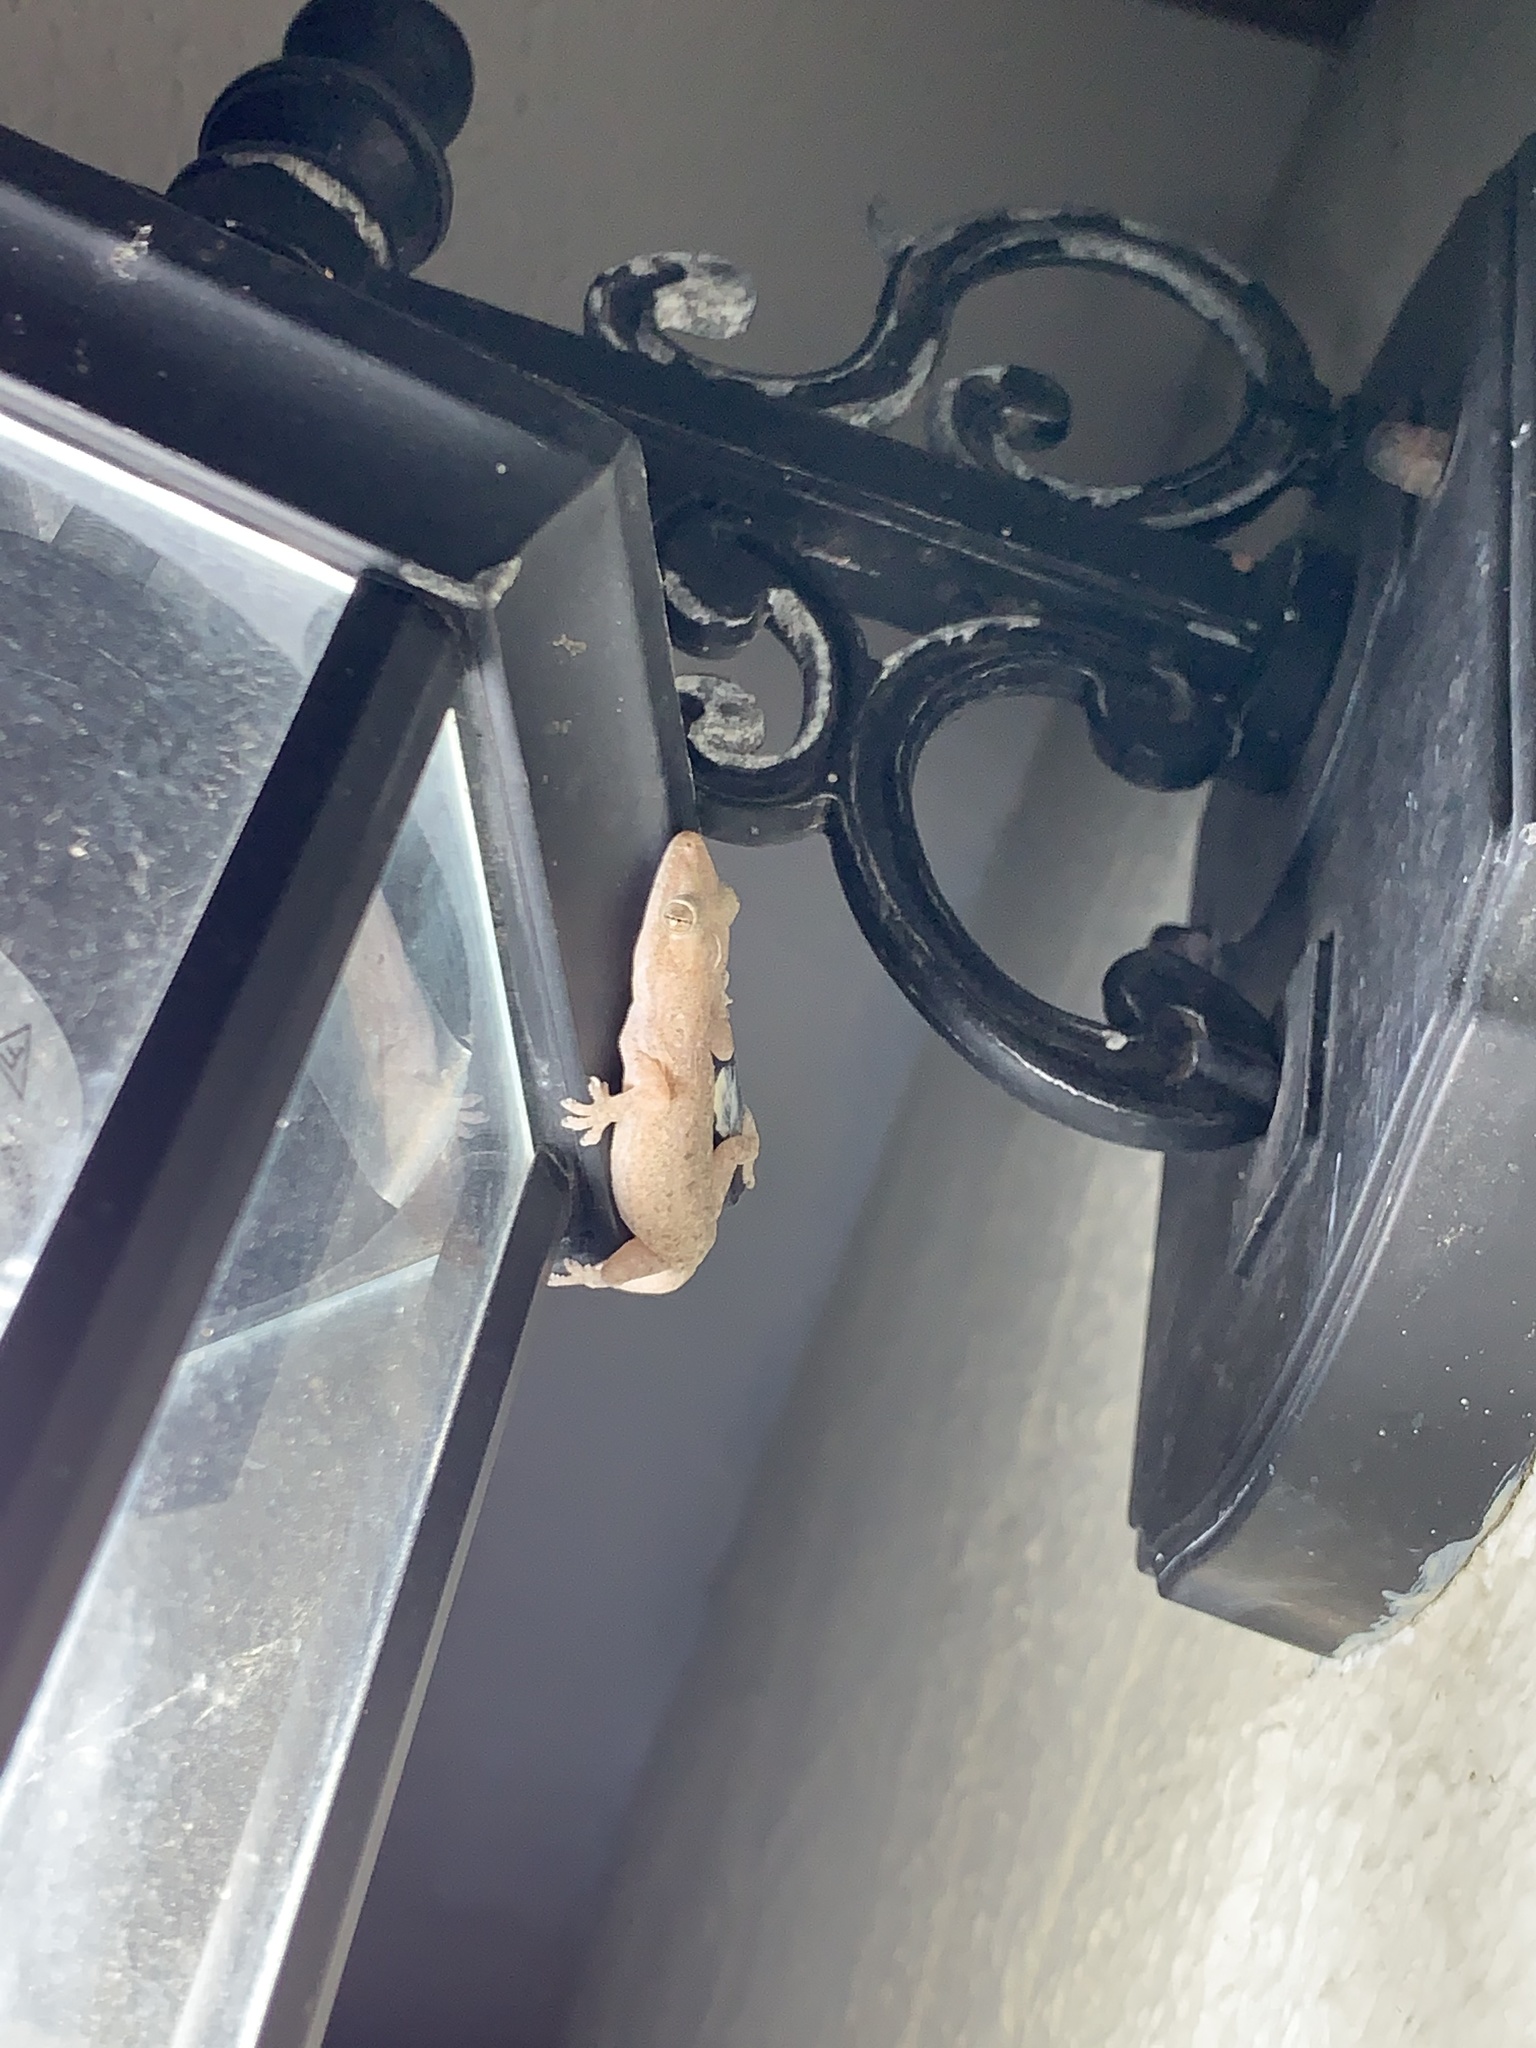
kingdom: Animalia
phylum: Chordata
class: Squamata
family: Gekkonidae
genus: Hemidactylus
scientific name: Hemidactylus frenatus
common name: Common house gecko
